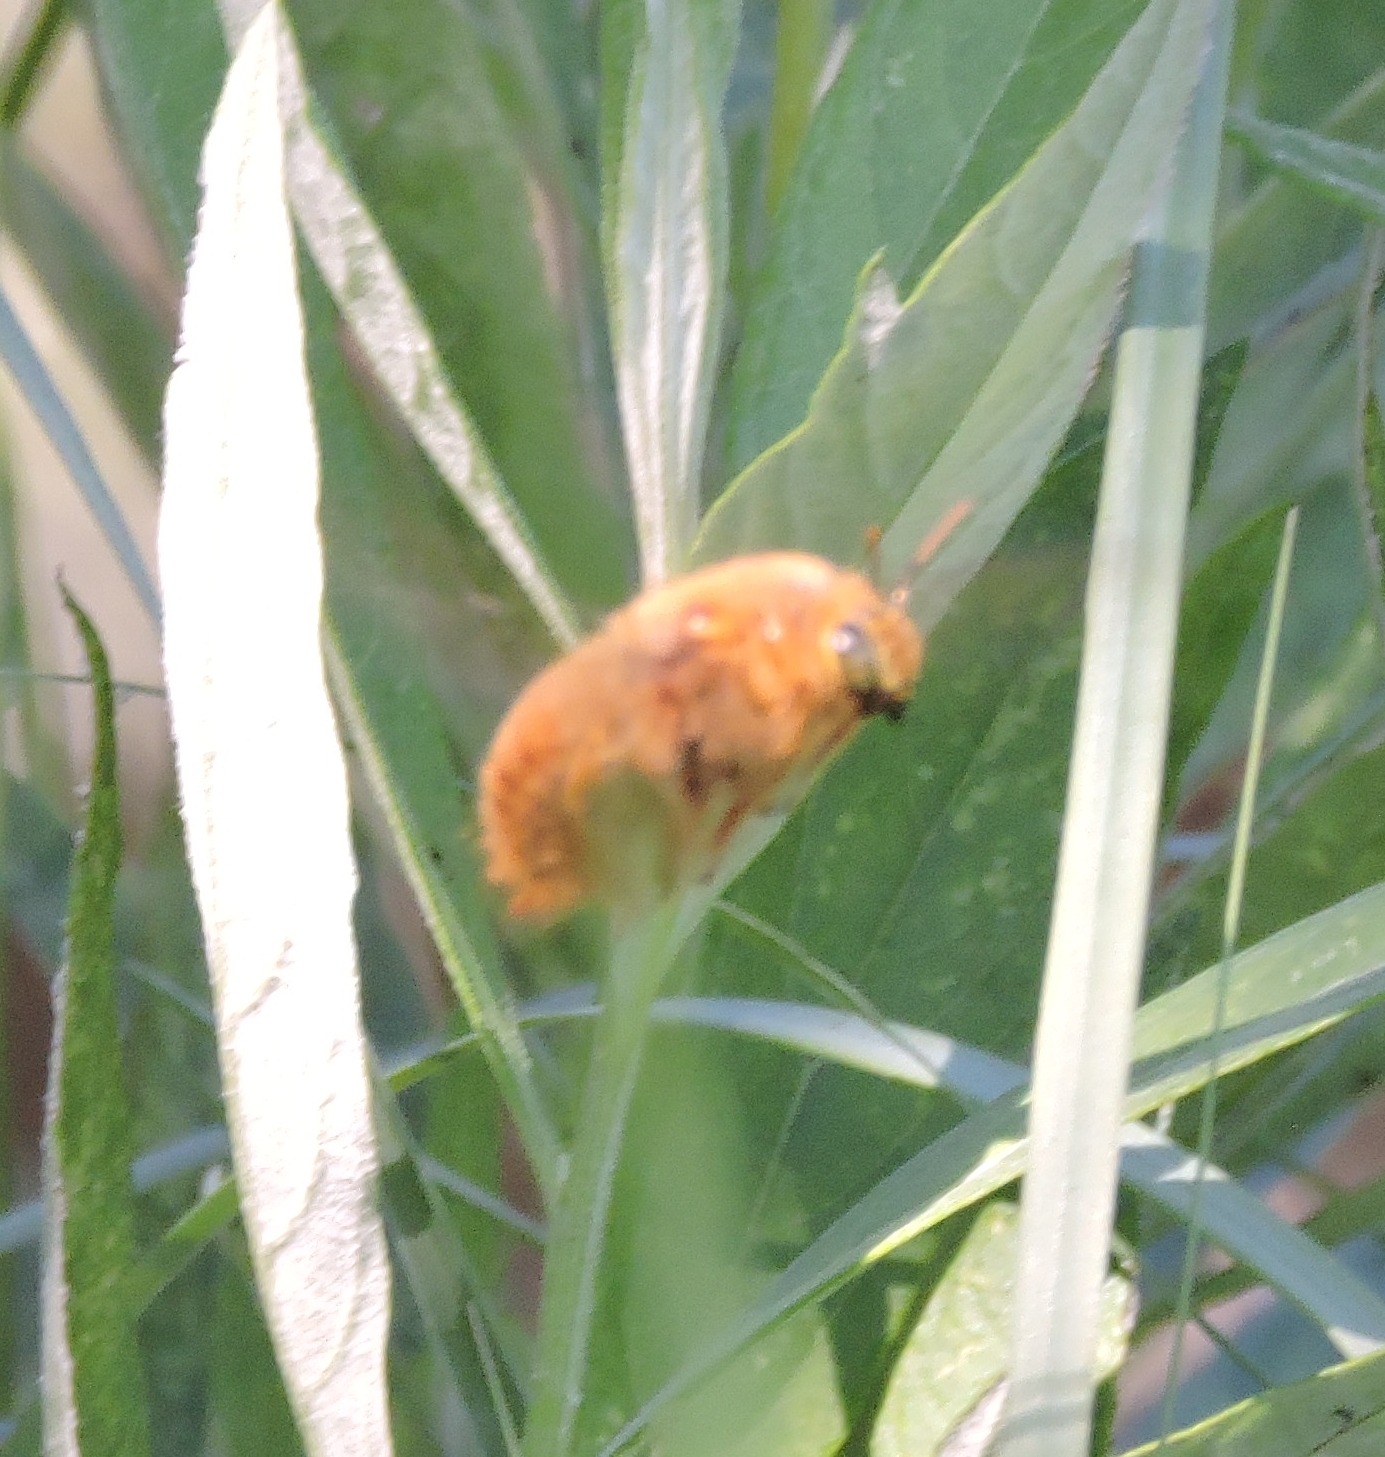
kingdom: Animalia
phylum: Arthropoda
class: Insecta
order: Hymenoptera
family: Apidae
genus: Xylocopa
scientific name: Xylocopa sonorina
